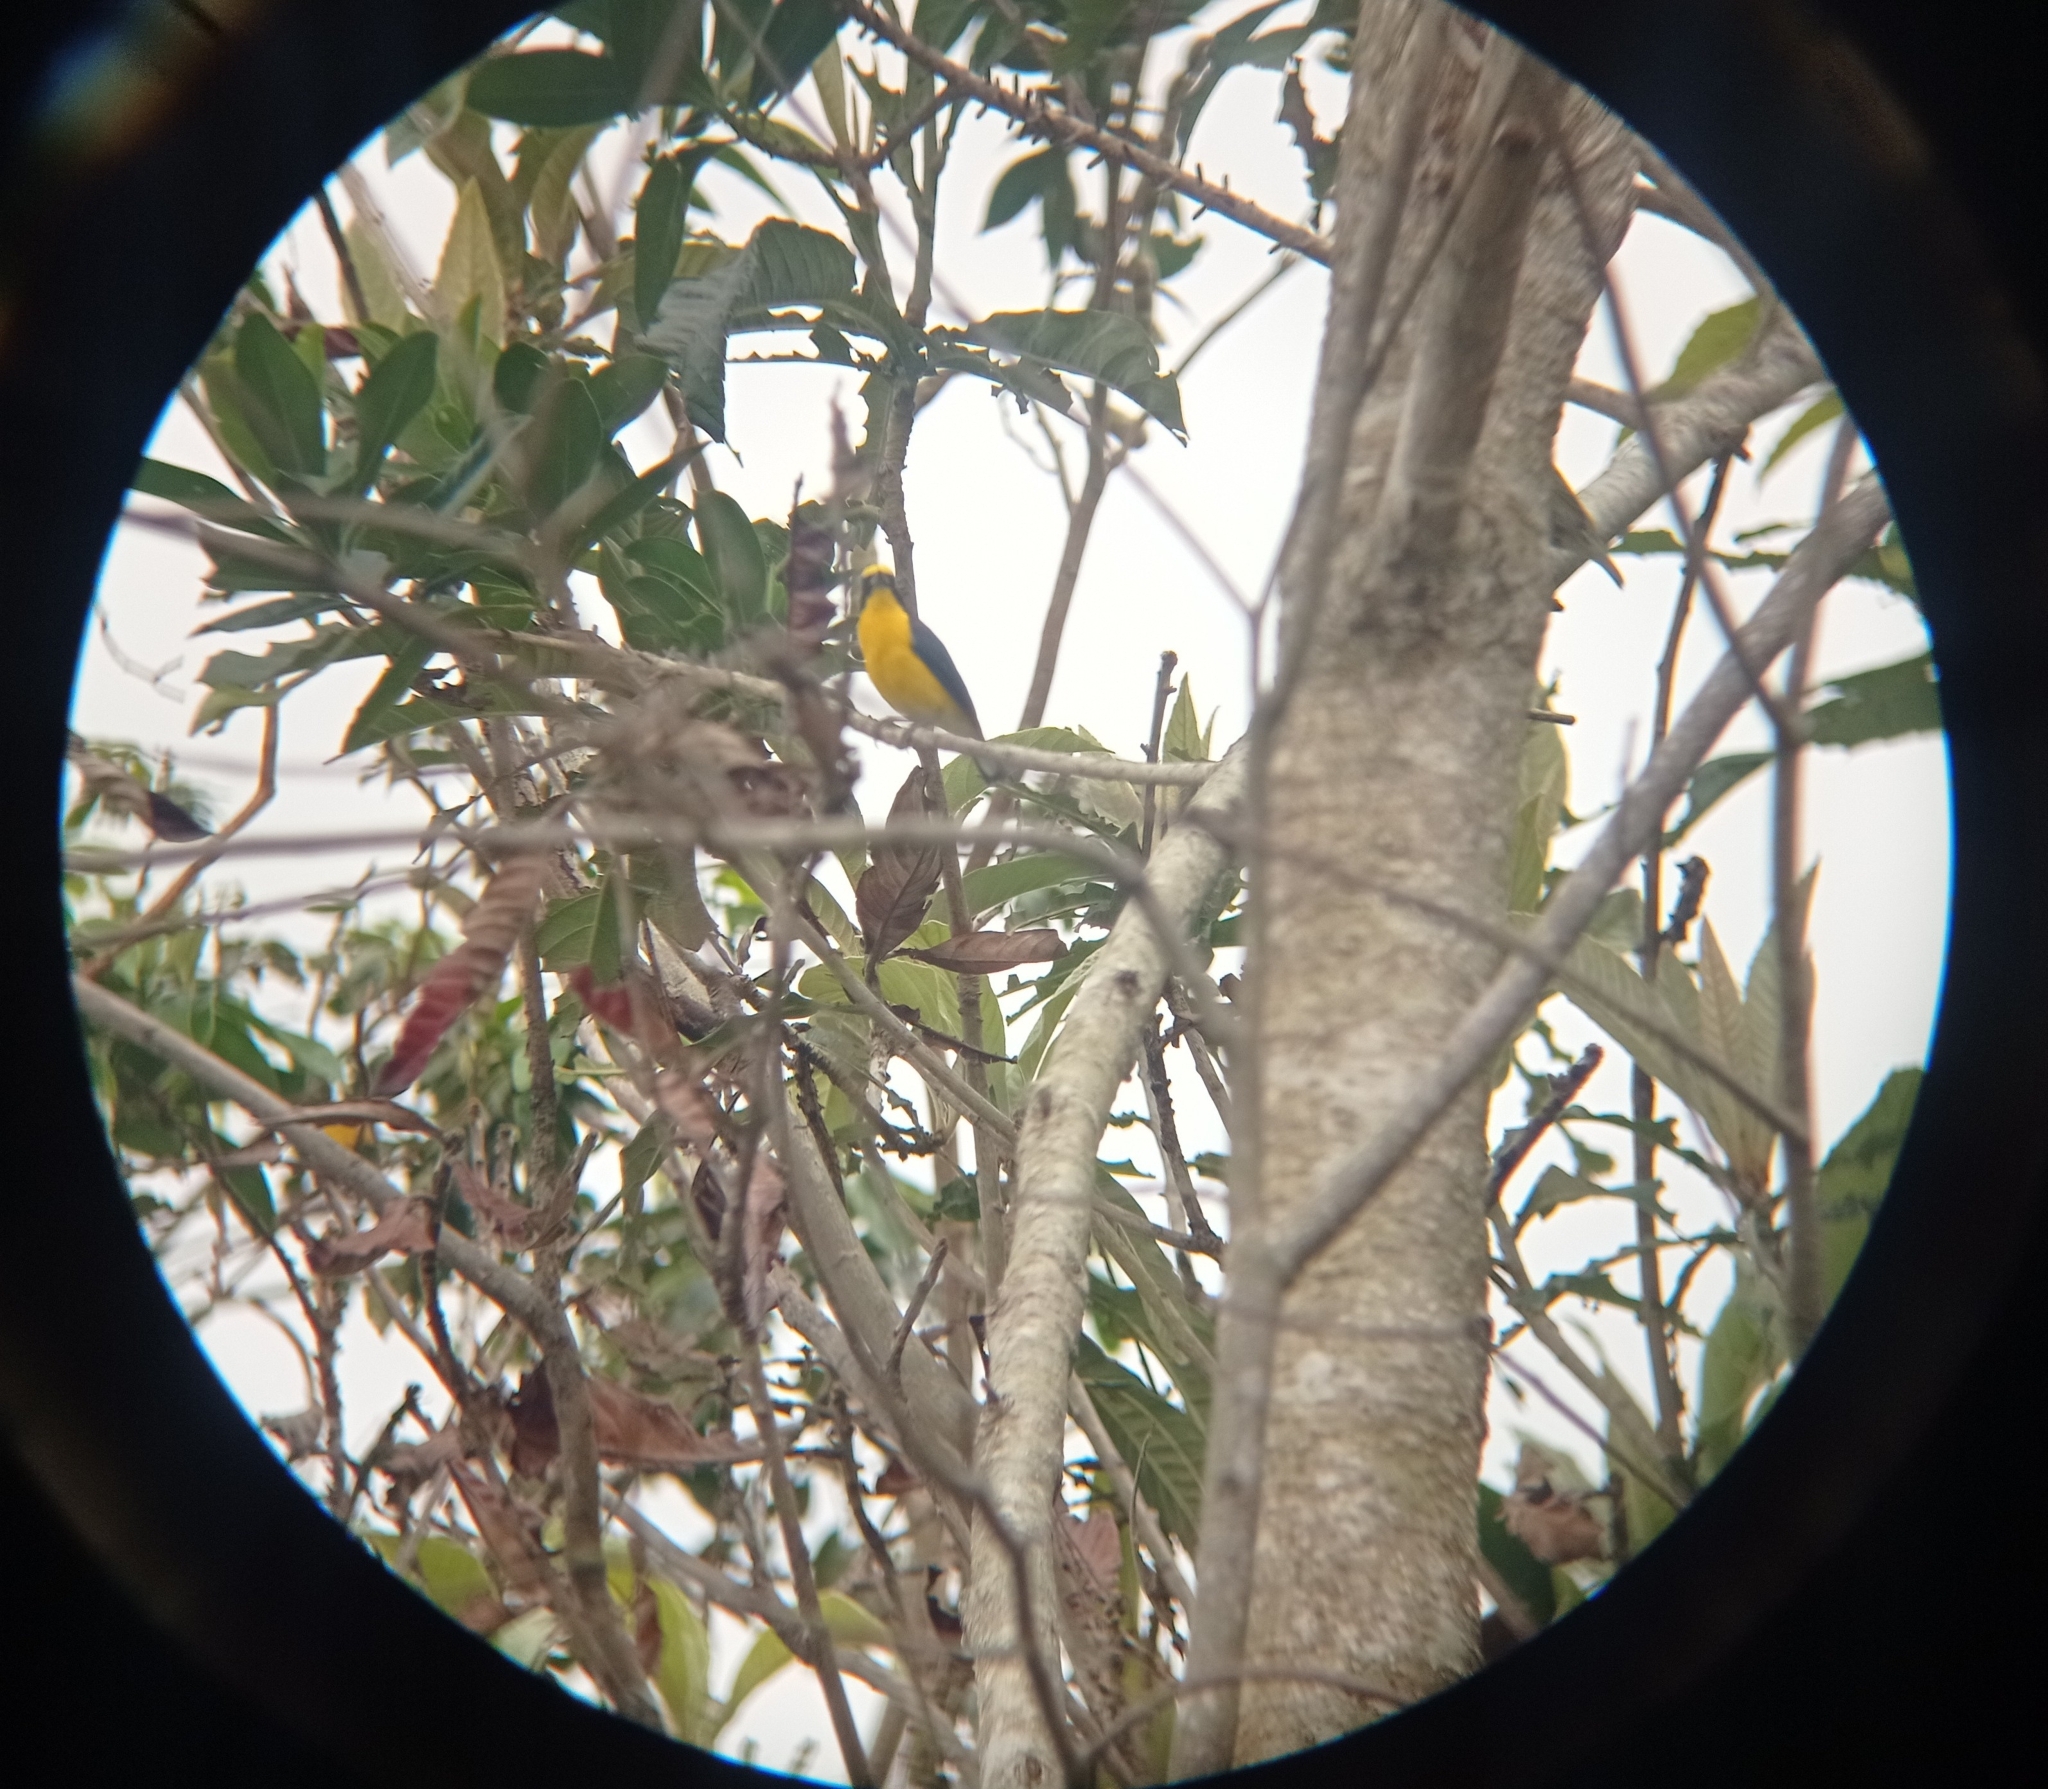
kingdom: Animalia
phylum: Chordata
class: Aves
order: Passeriformes
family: Fringillidae
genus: Euphonia
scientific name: Euphonia laniirostris
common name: Thick-billed euphonia
